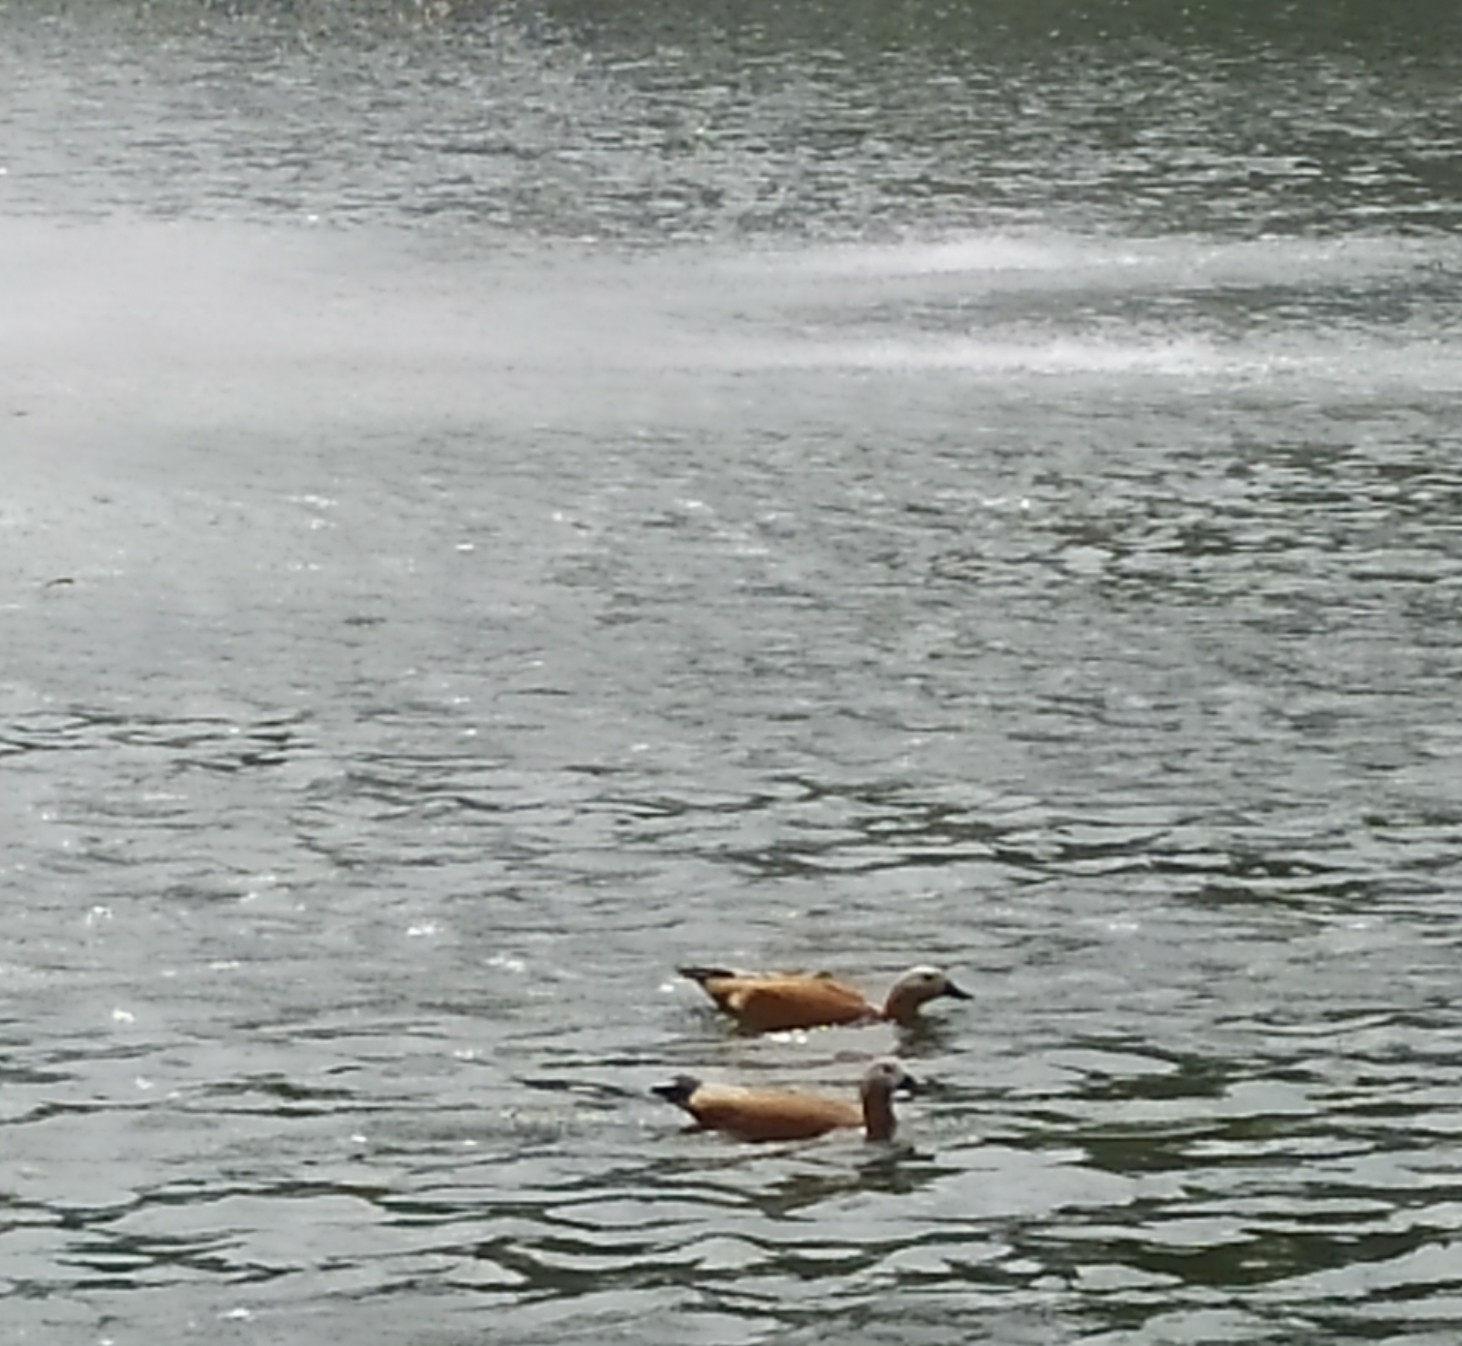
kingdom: Animalia
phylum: Chordata
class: Aves
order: Anseriformes
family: Anatidae
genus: Tadorna
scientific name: Tadorna ferruginea
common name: Ruddy shelduck
